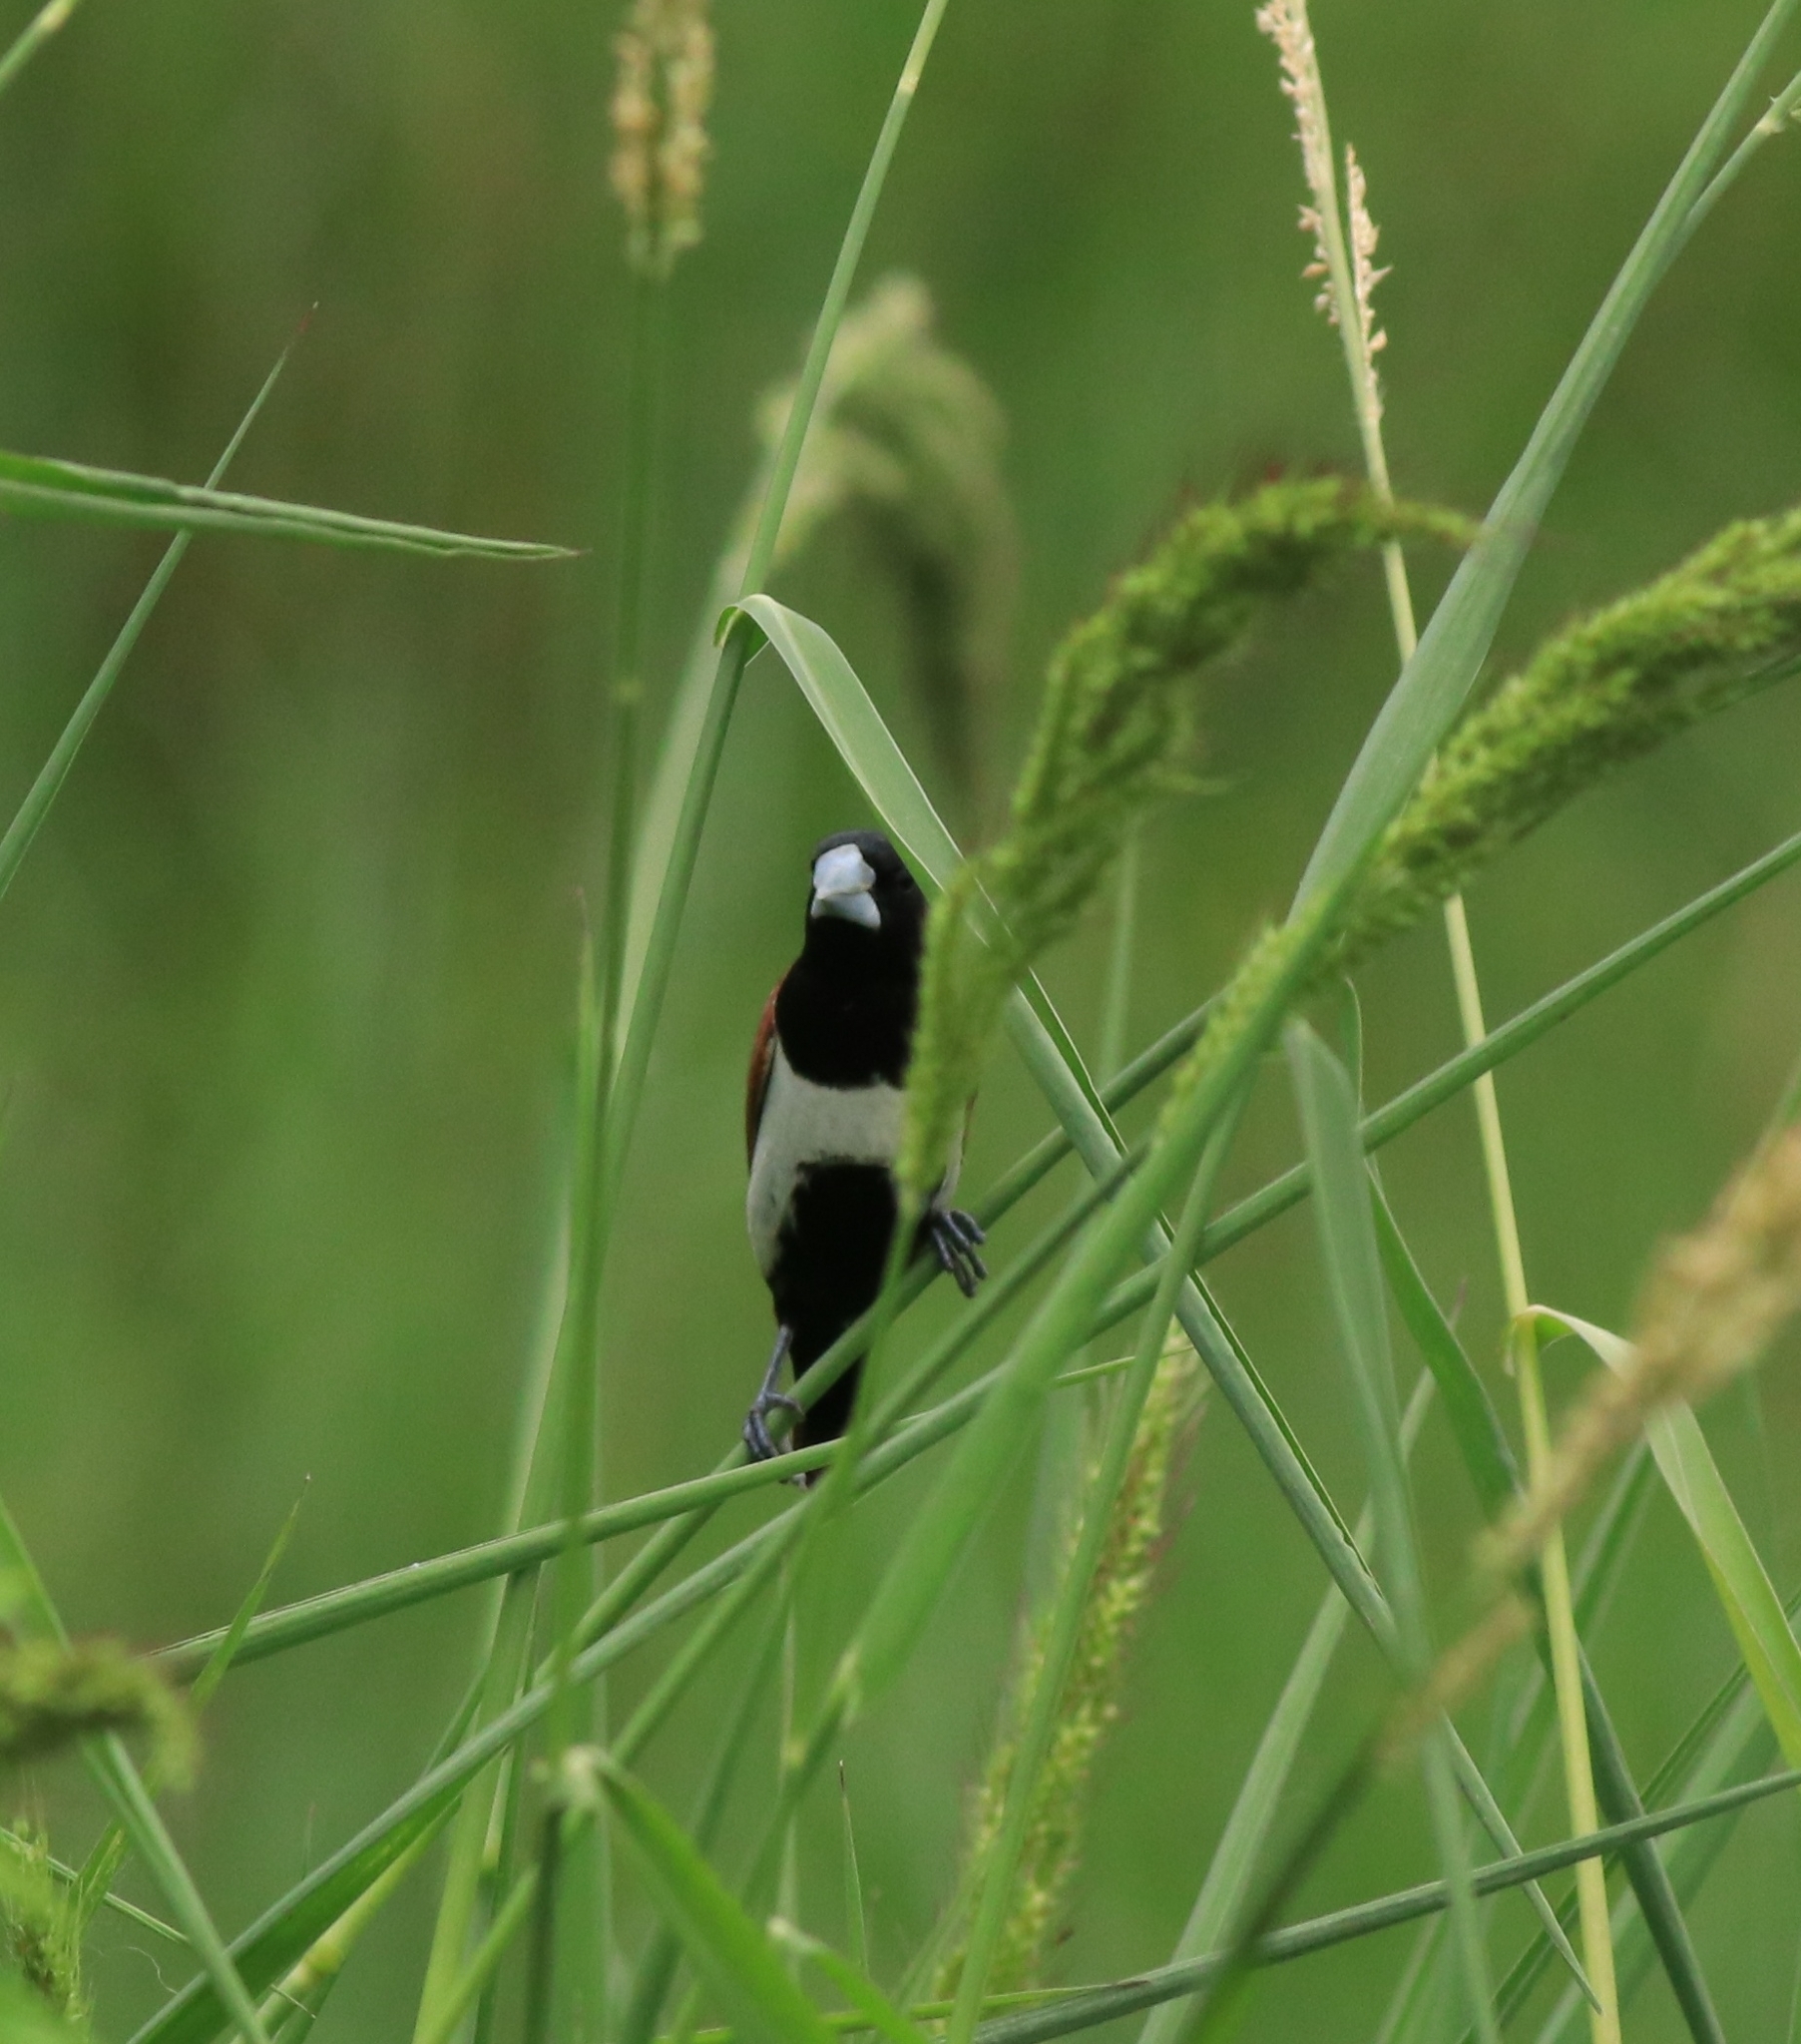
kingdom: Animalia
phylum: Chordata
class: Aves
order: Passeriformes
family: Estrildidae
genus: Lonchura
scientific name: Lonchura malacca
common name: Tricolored munia
